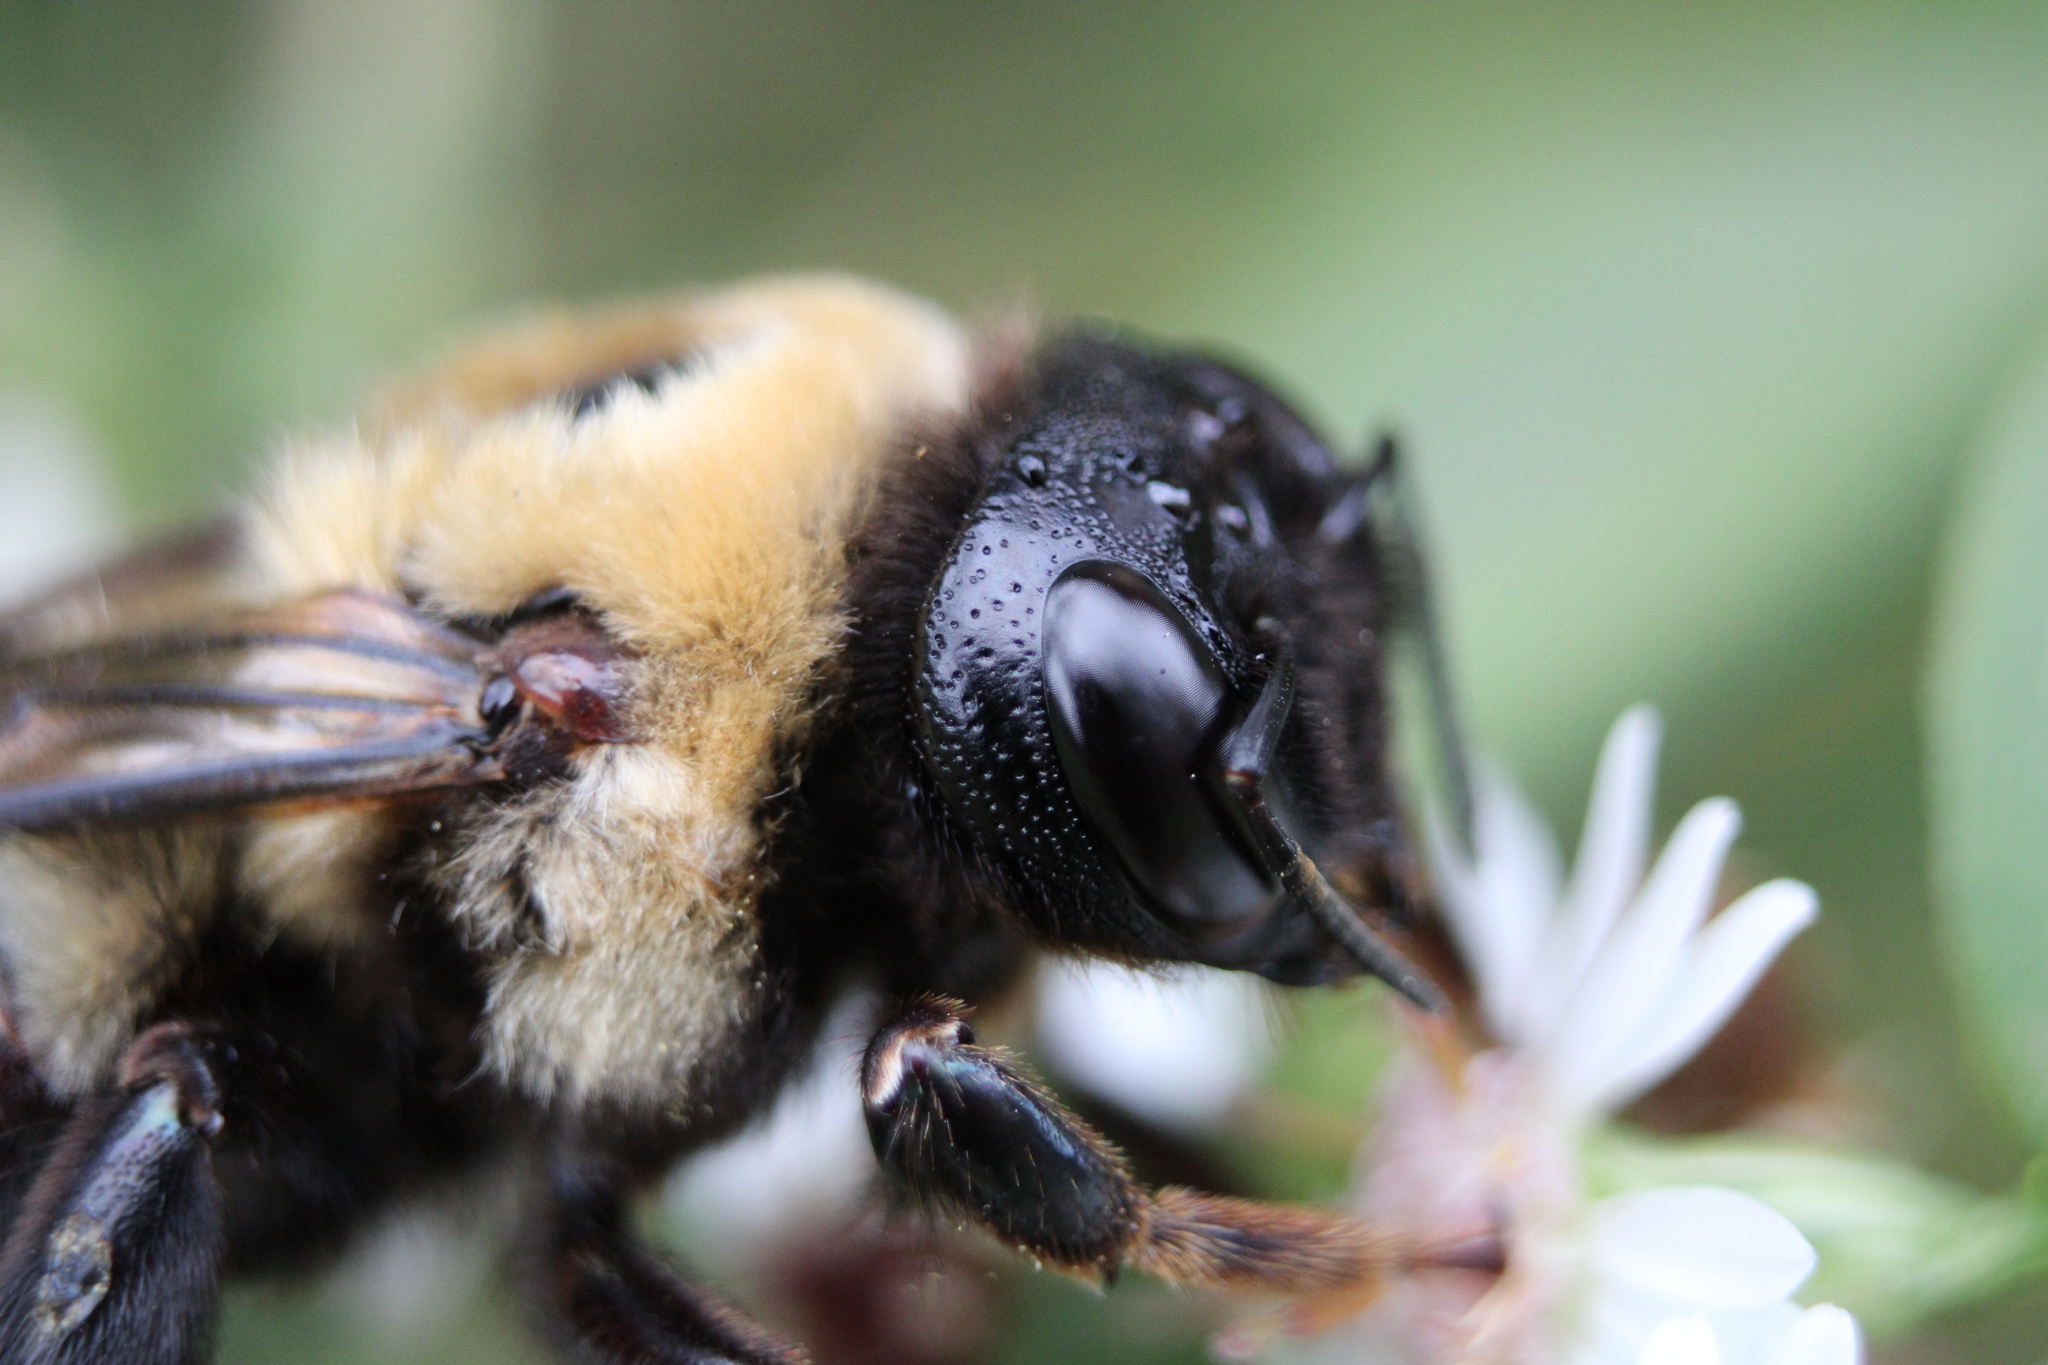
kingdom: Animalia
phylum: Arthropoda
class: Insecta
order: Hymenoptera
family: Apidae
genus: Xylocopa
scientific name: Xylocopa virginica
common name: Carpenter bee
